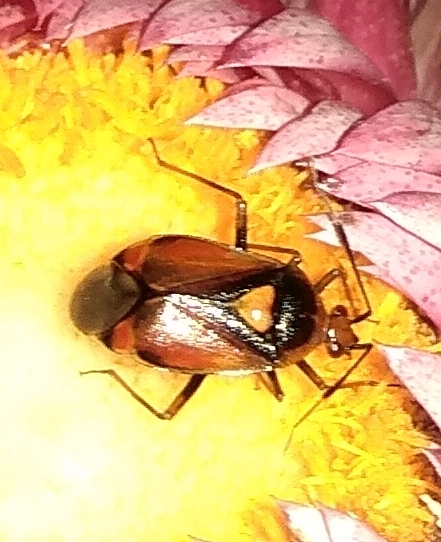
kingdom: Animalia
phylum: Arthropoda
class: Insecta
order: Hemiptera
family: Miridae
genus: Deraeocoris
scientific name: Deraeocoris ruber
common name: Plant bug
